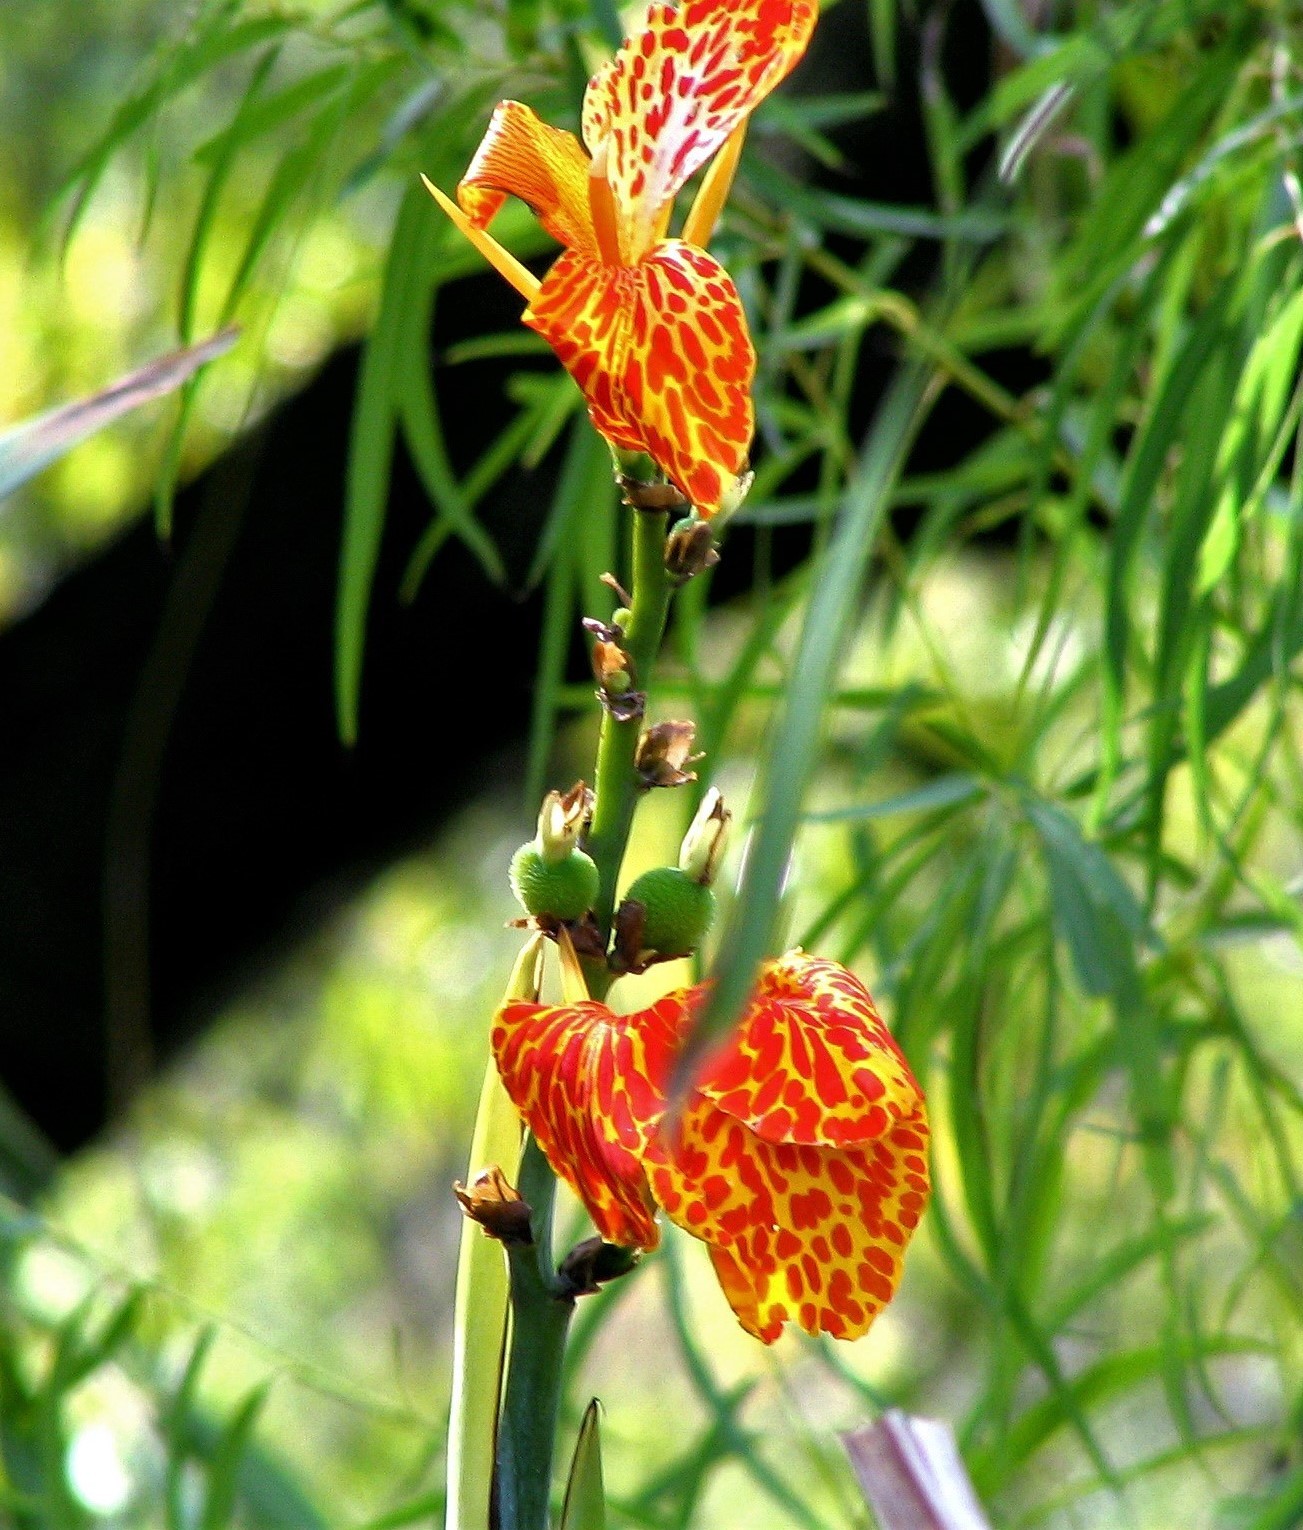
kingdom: Plantae
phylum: Tracheophyta
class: Liliopsida
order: Zingiberales
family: Cannaceae
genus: Canna
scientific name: Canna hybrida
